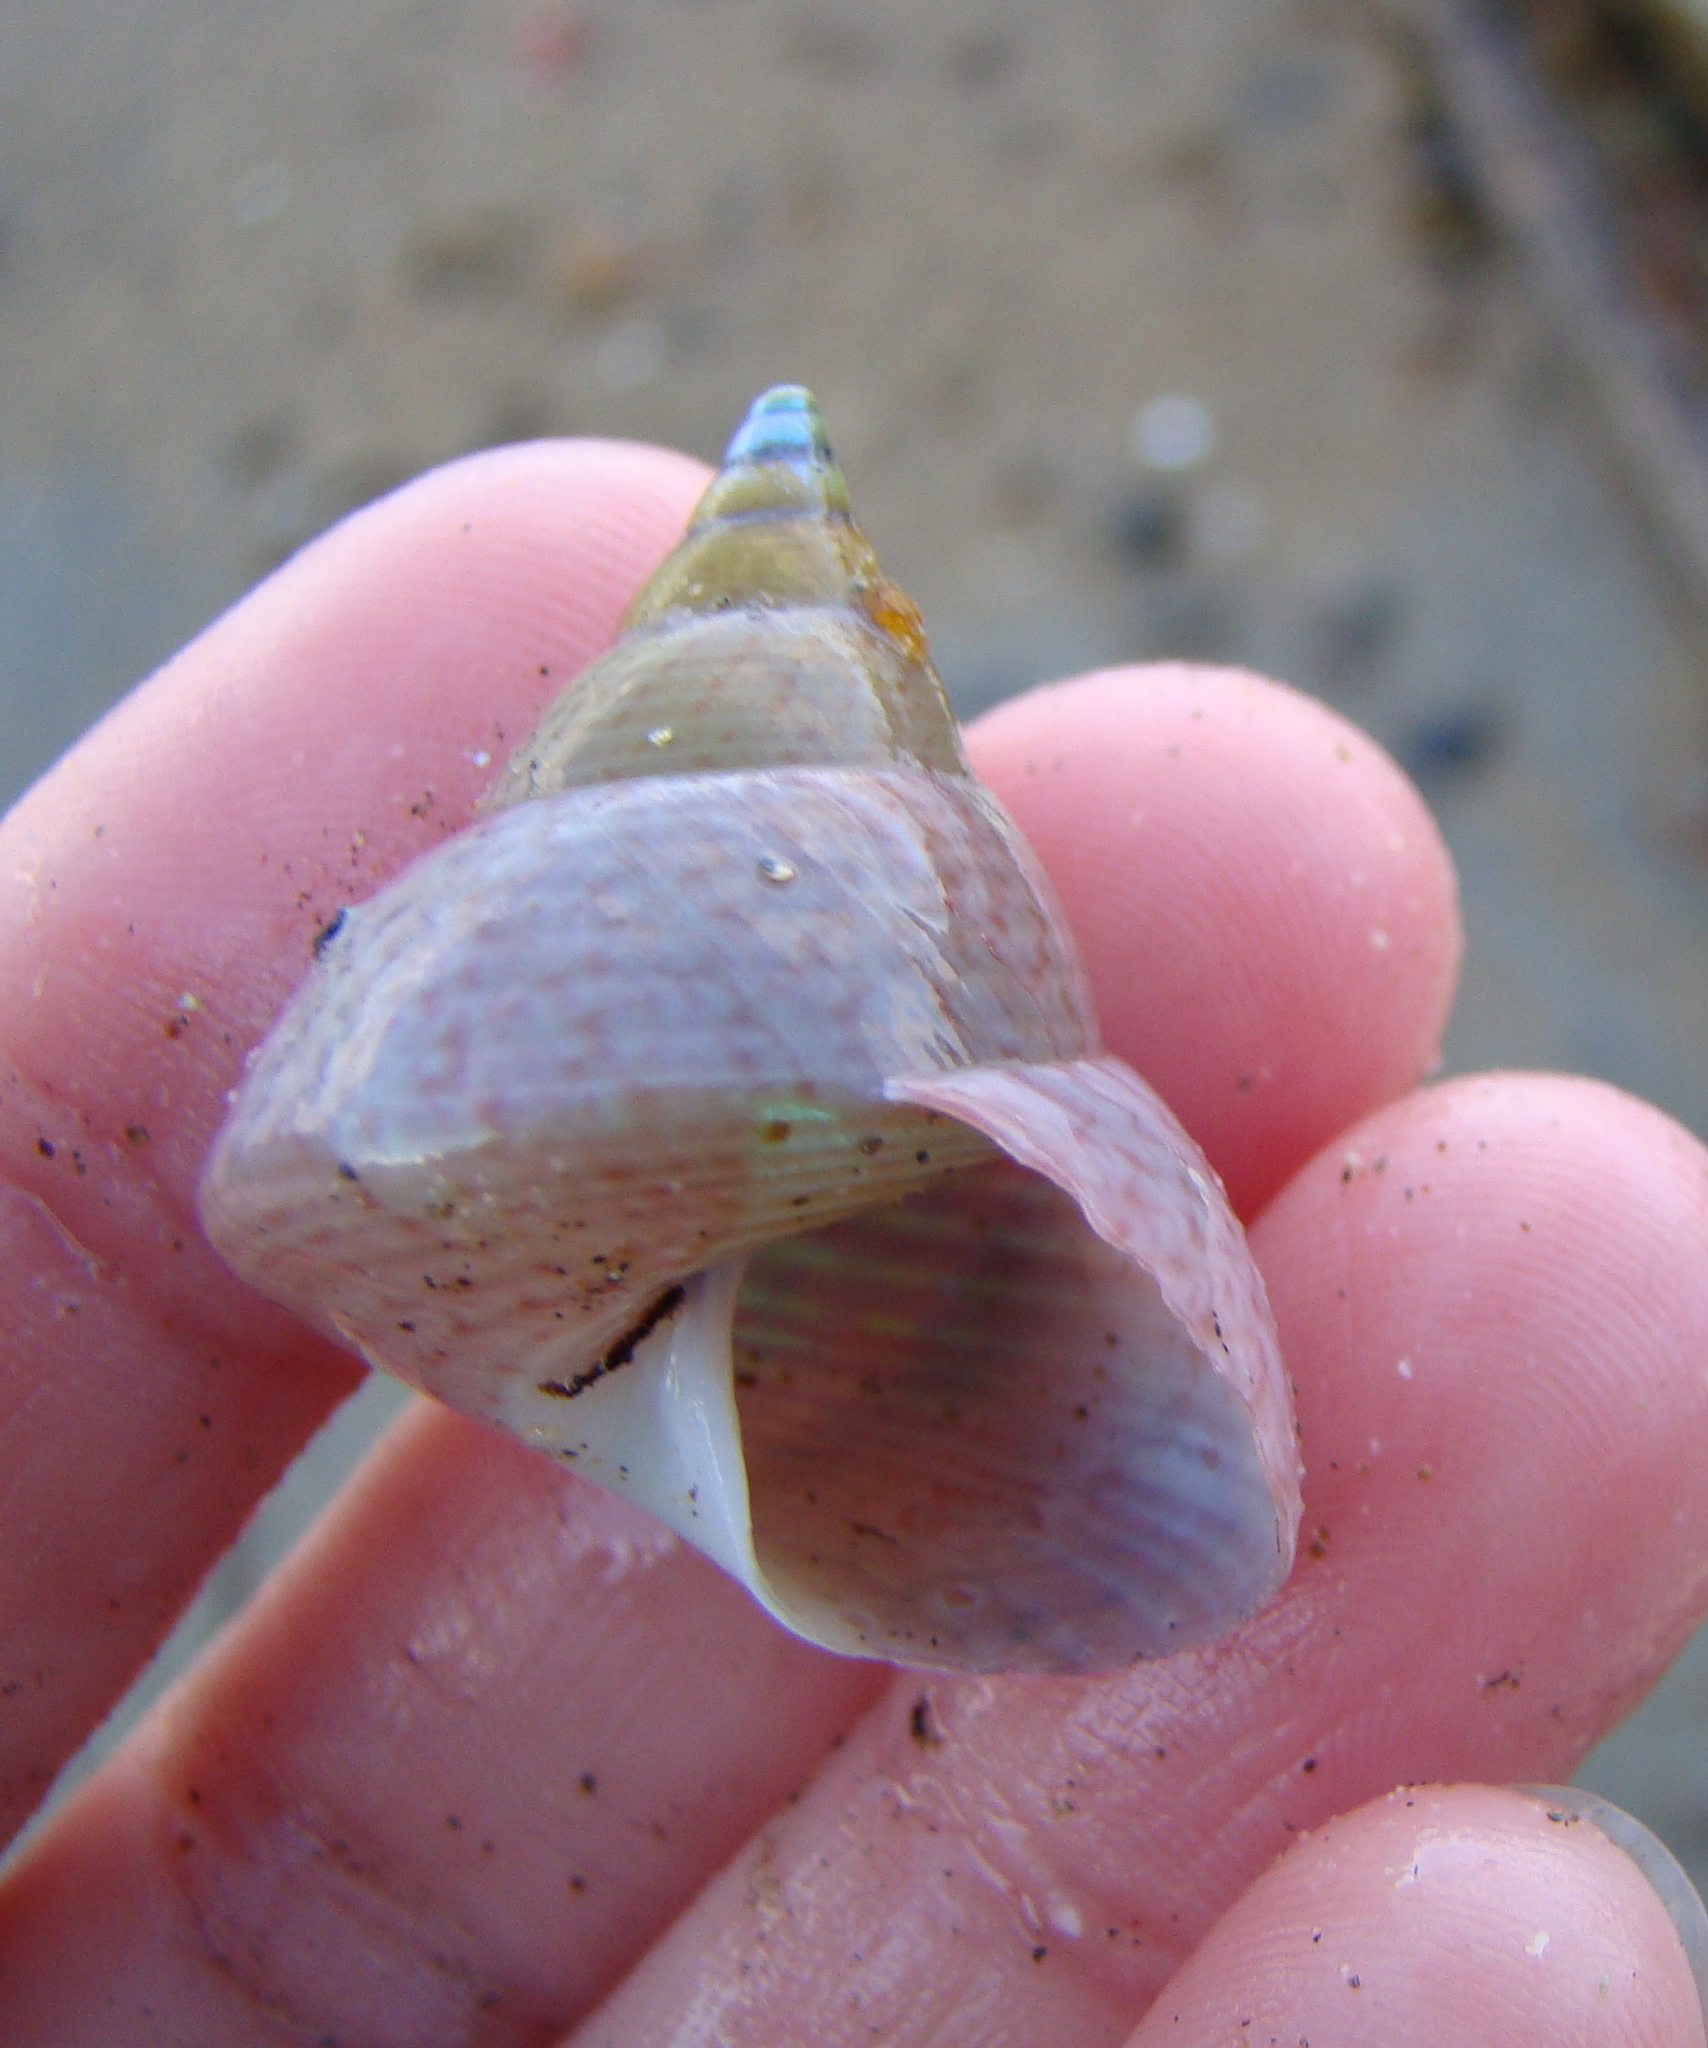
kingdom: Animalia
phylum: Mollusca
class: Gastropoda
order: Trochida
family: Trochidae
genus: Cantharidus
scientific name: Cantharidus opalus
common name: Opal jewel topsnail
